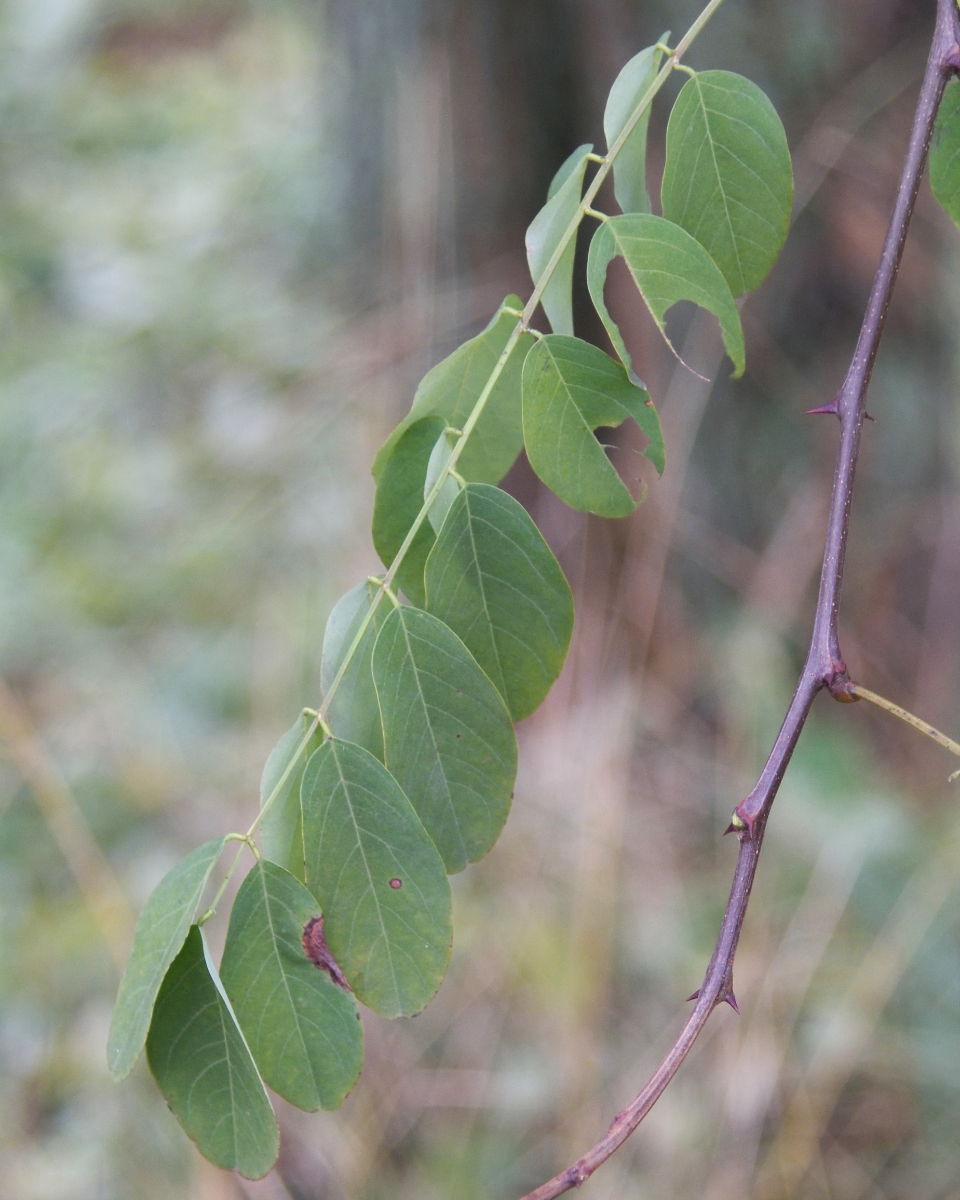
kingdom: Plantae
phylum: Tracheophyta
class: Magnoliopsida
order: Fabales
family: Fabaceae
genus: Robinia
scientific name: Robinia pseudoacacia
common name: Black locust
